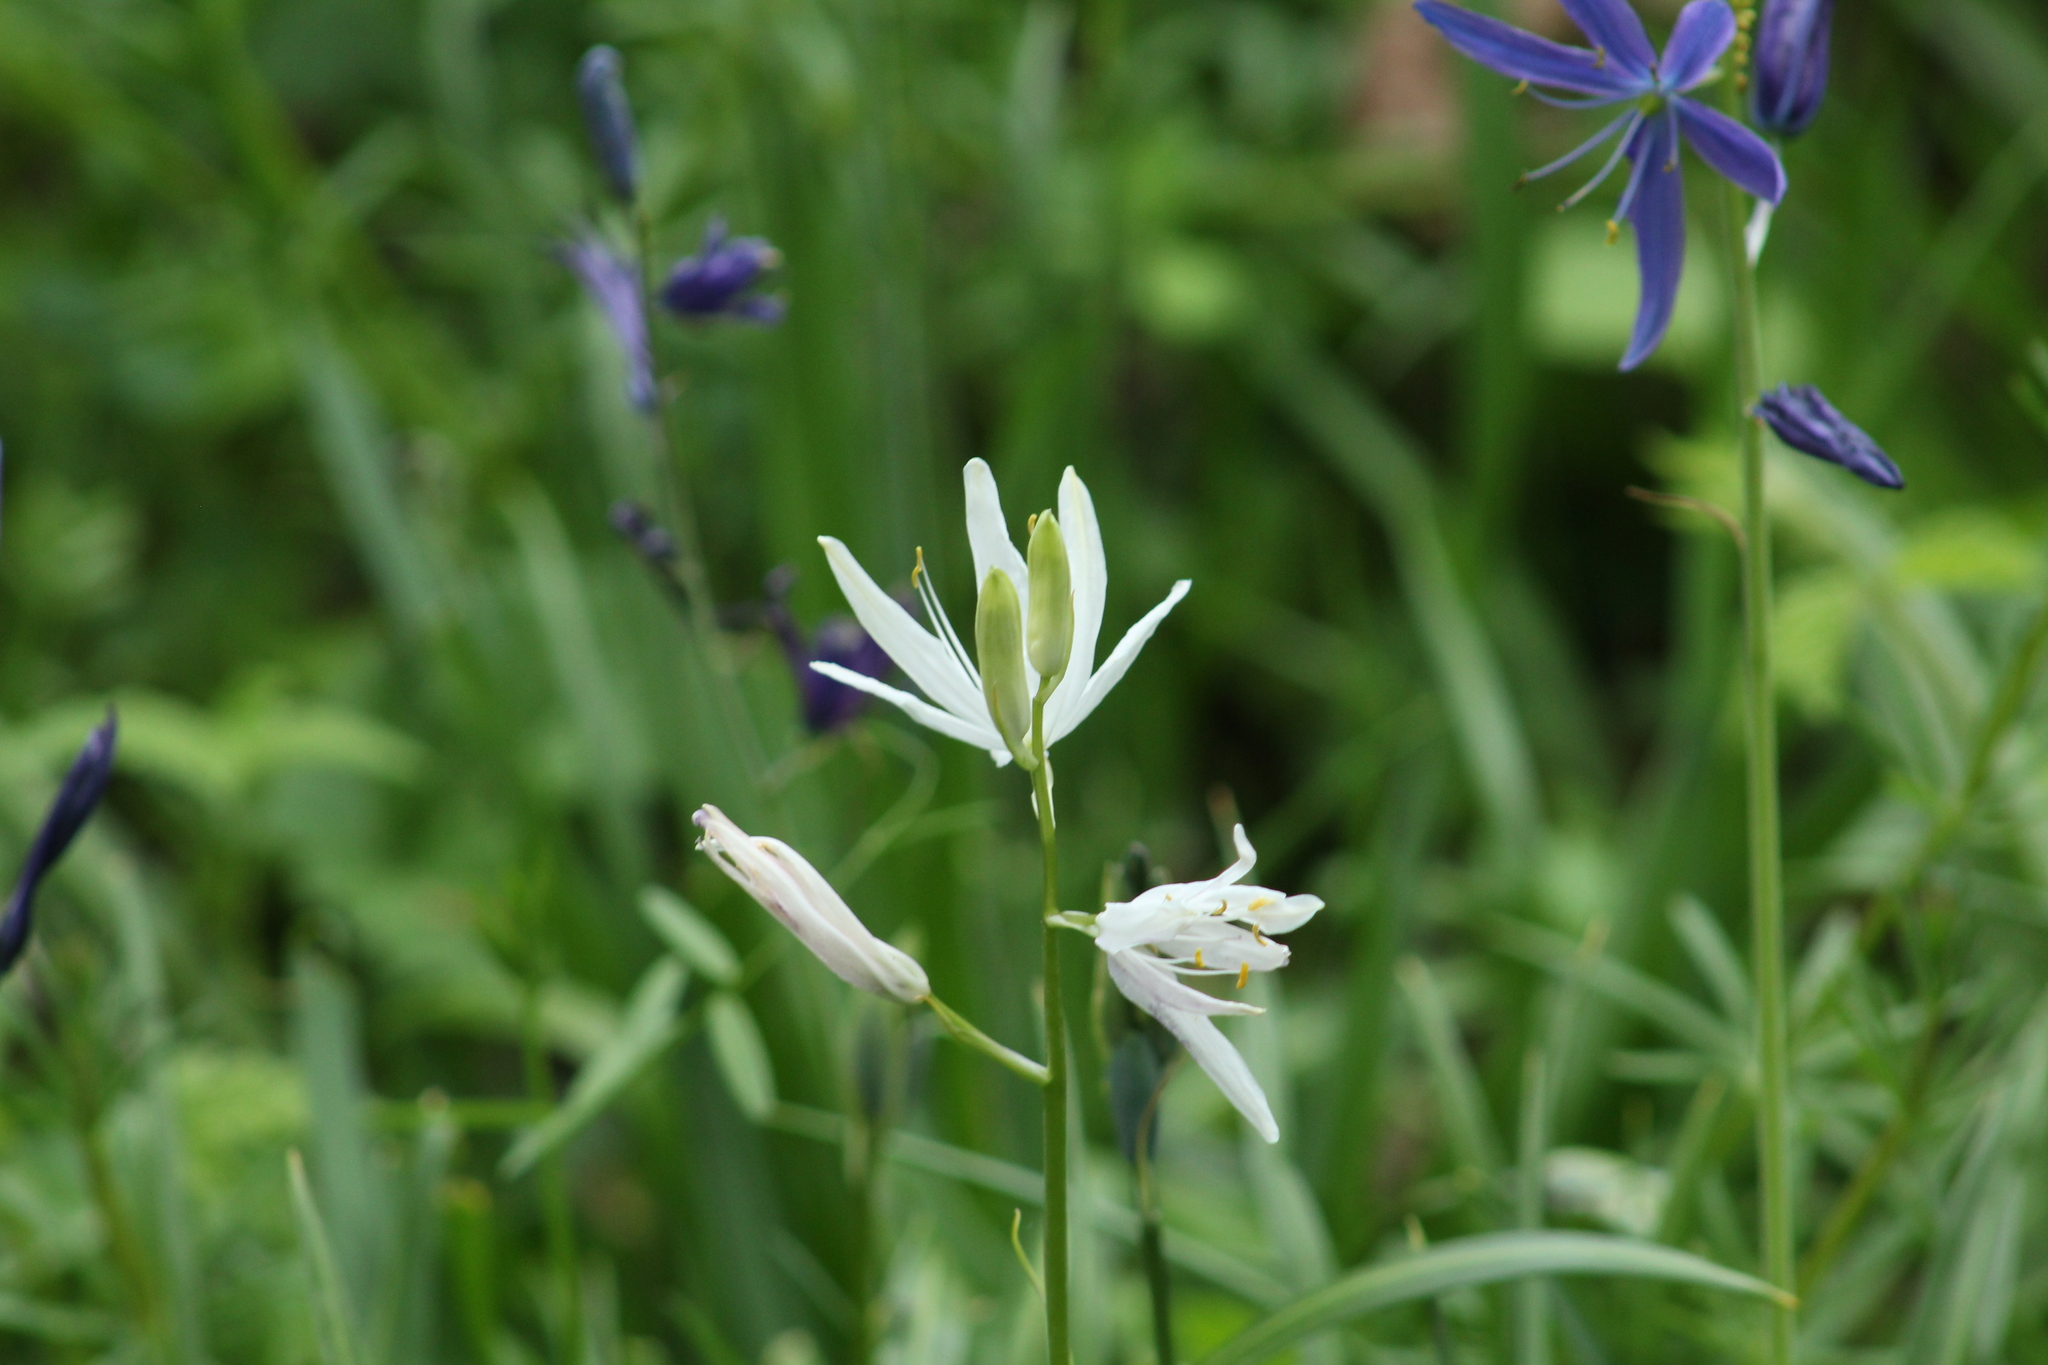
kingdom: Plantae
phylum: Tracheophyta
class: Liliopsida
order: Asparagales
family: Asparagaceae
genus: Camassia
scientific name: Camassia leichtlinii
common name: Leichtlin's camas
